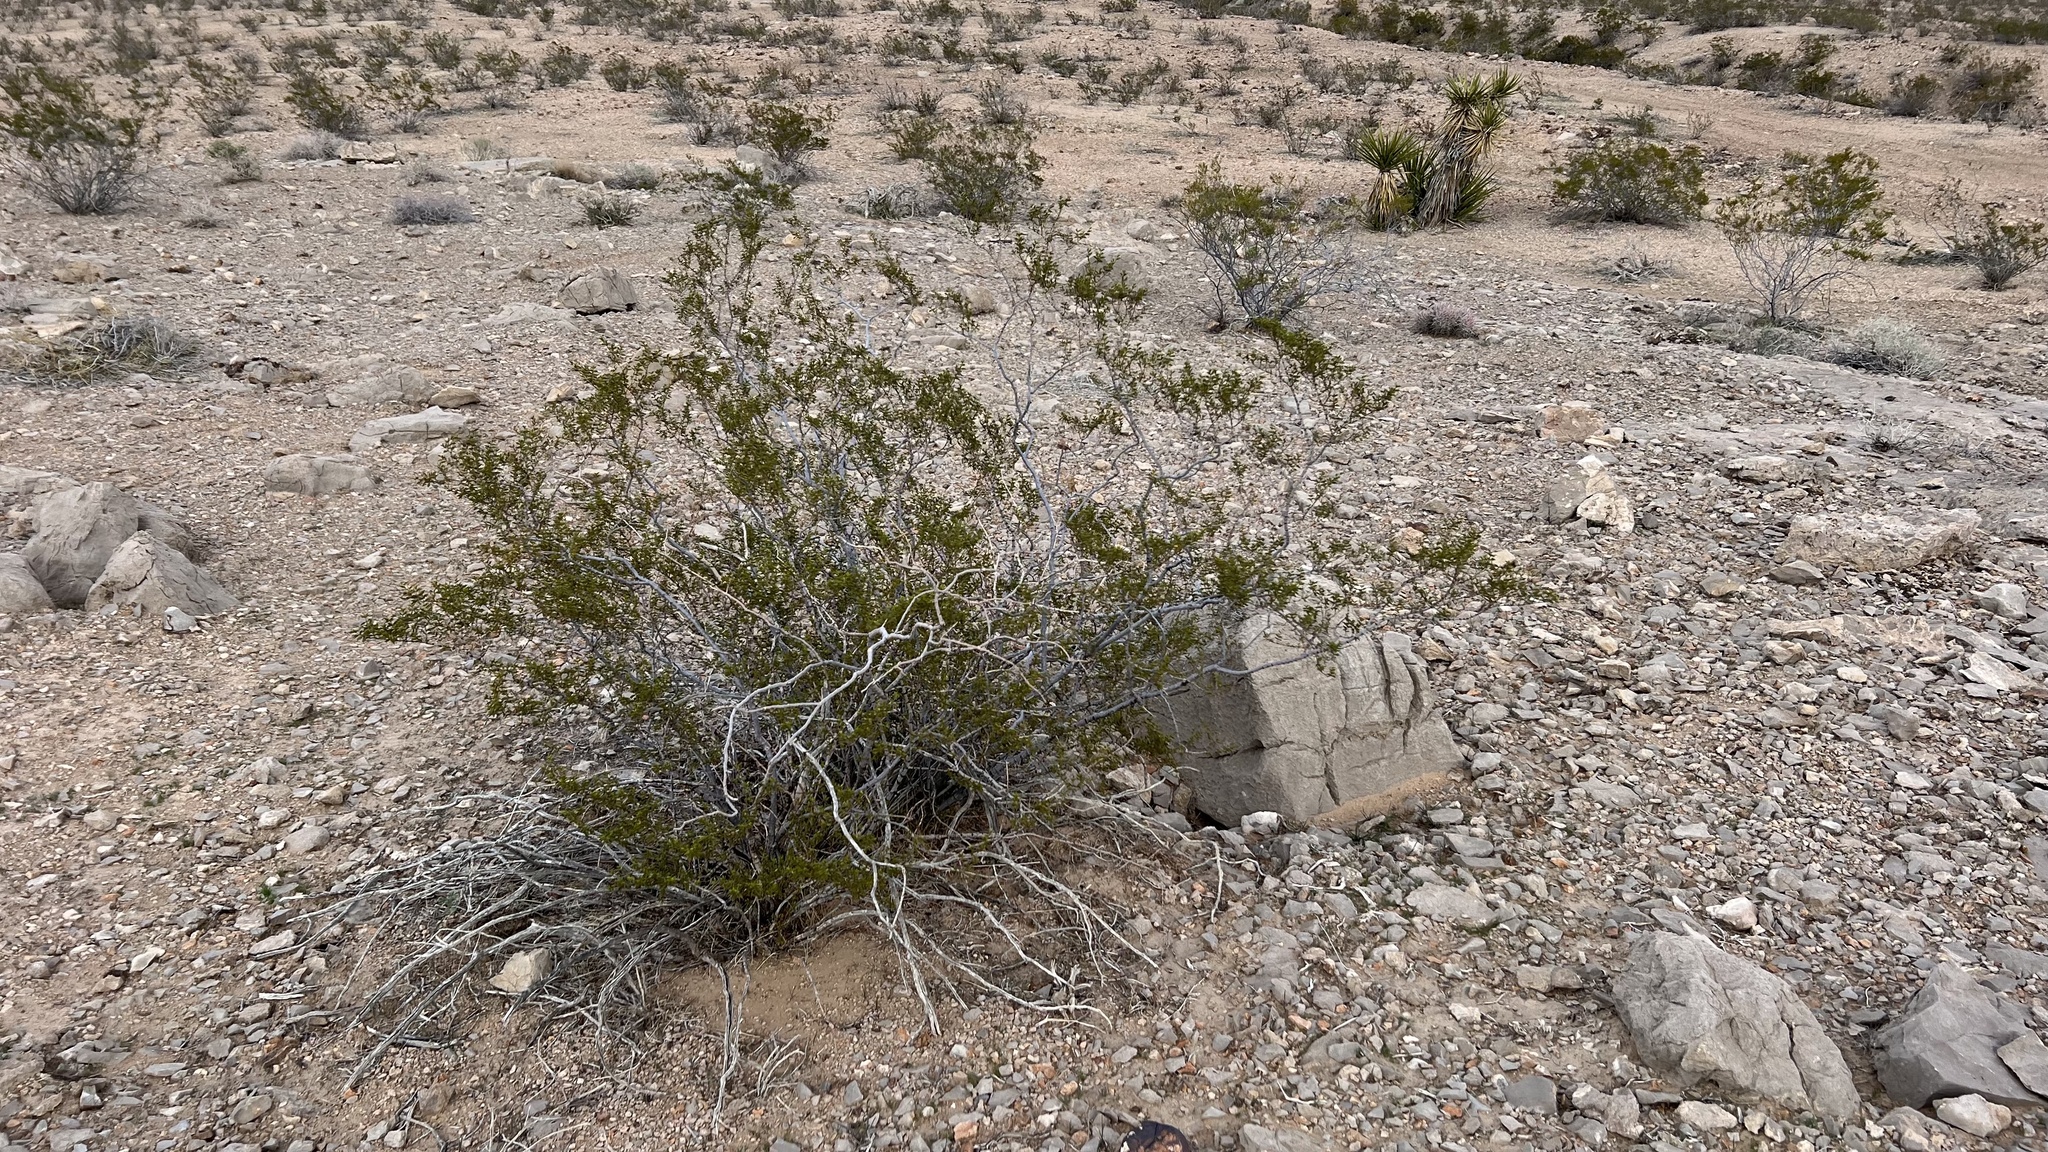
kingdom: Plantae
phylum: Tracheophyta
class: Magnoliopsida
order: Zygophyllales
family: Zygophyllaceae
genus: Larrea
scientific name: Larrea tridentata
